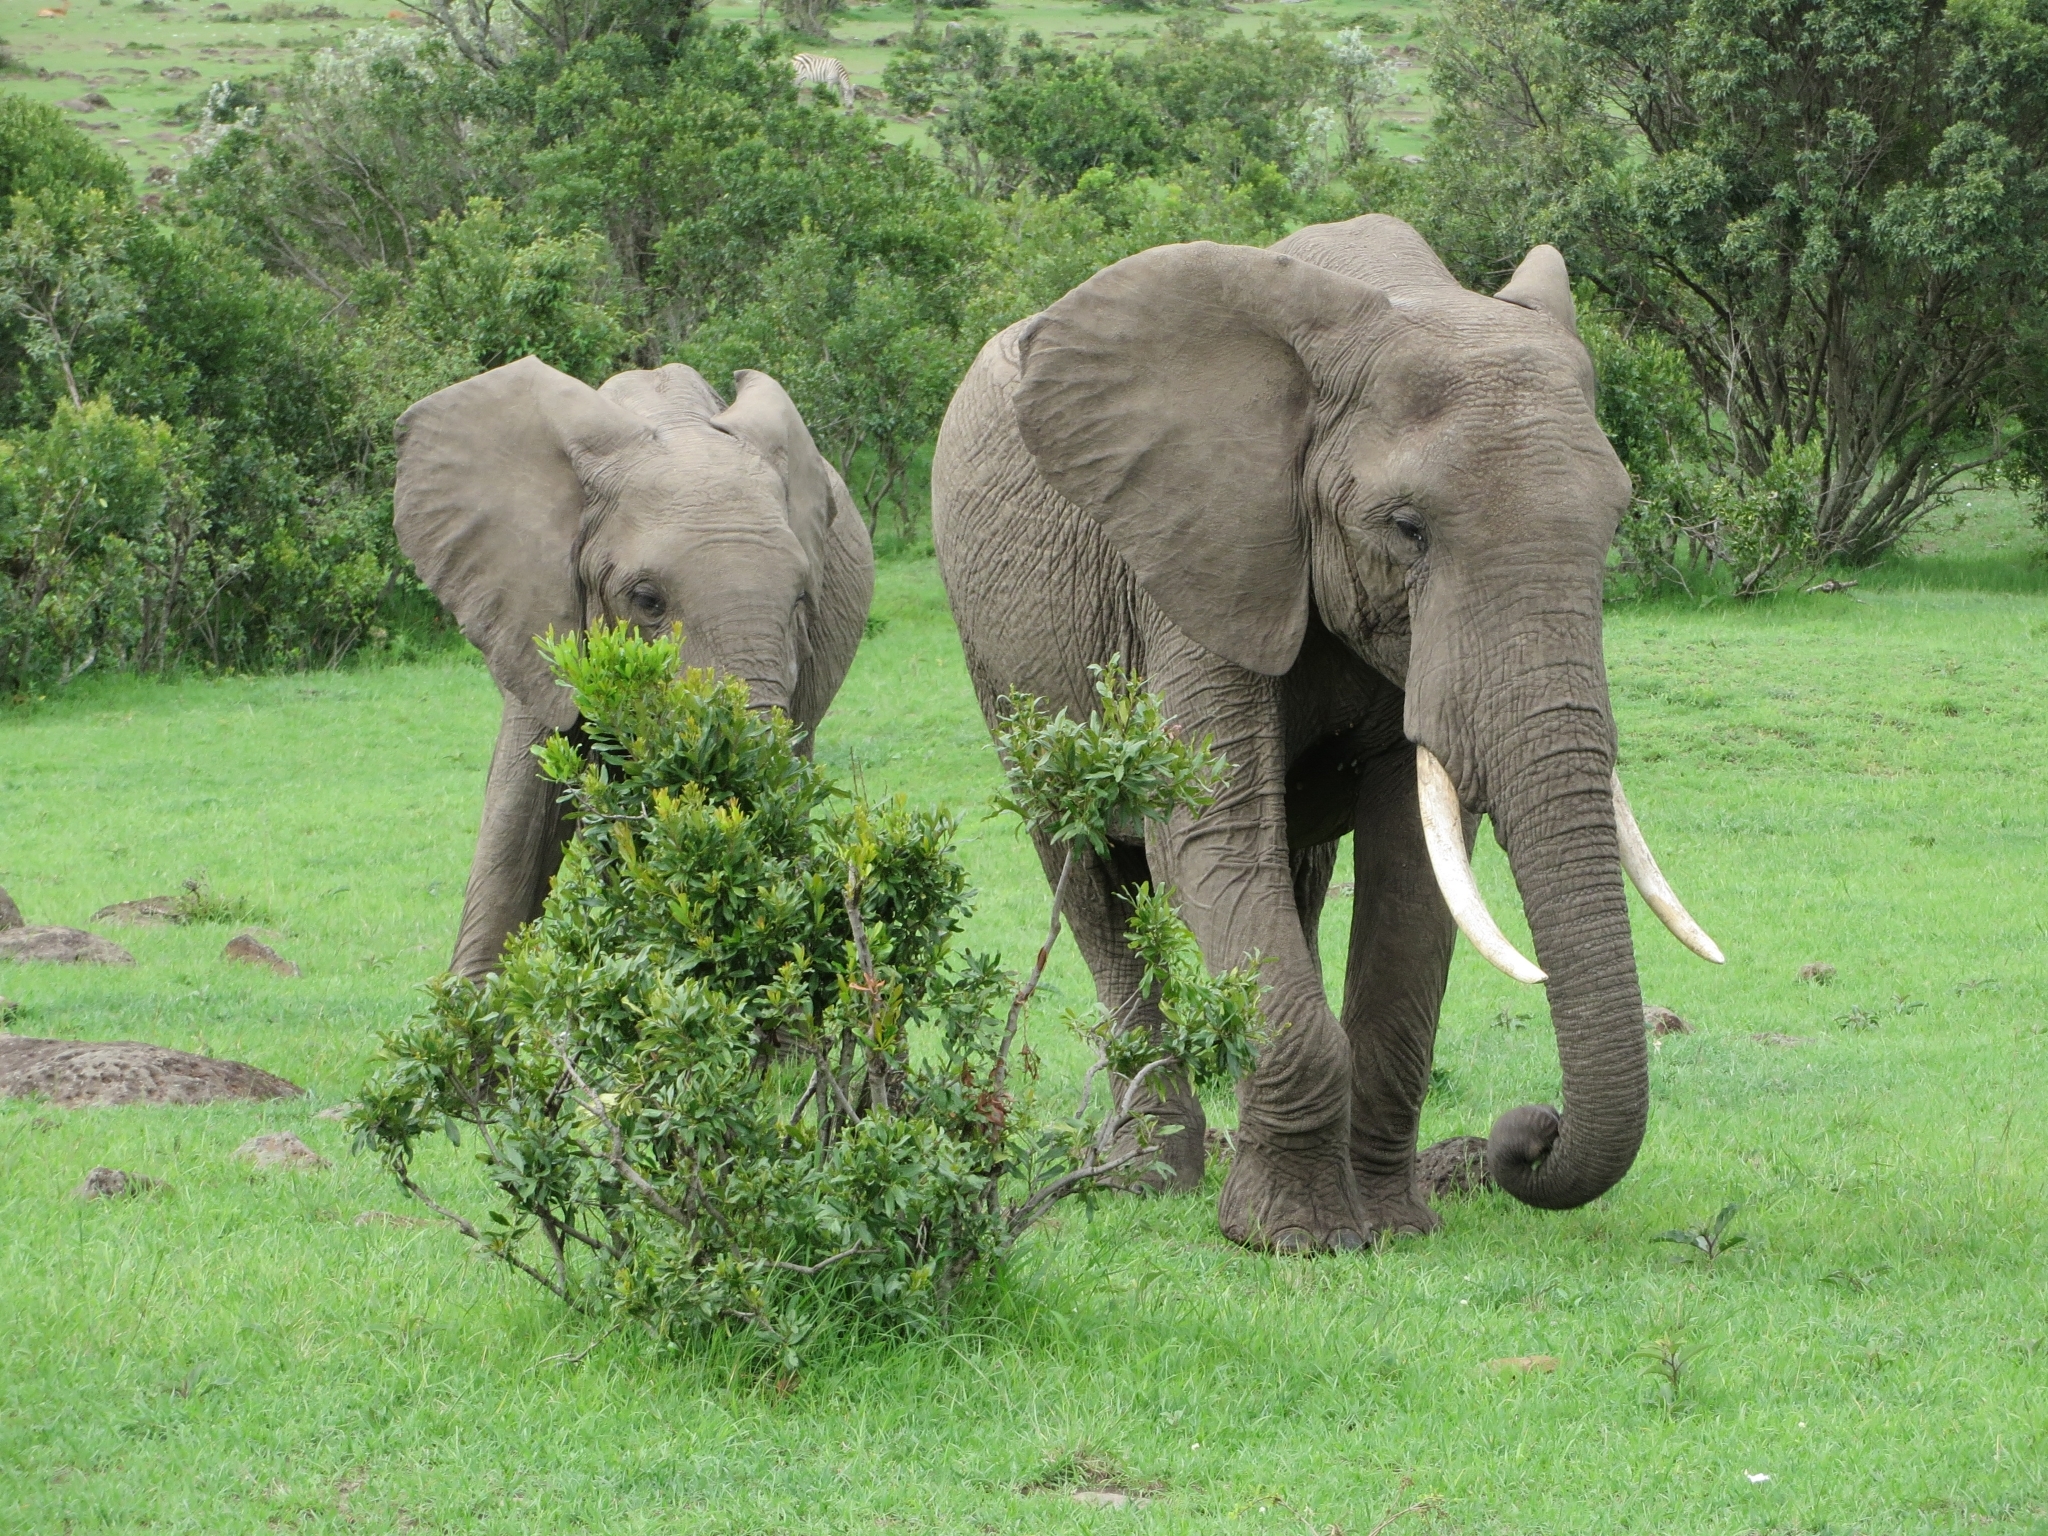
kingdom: Animalia
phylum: Chordata
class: Mammalia
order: Proboscidea
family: Elephantidae
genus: Loxodonta
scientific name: Loxodonta africana
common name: African elephant
